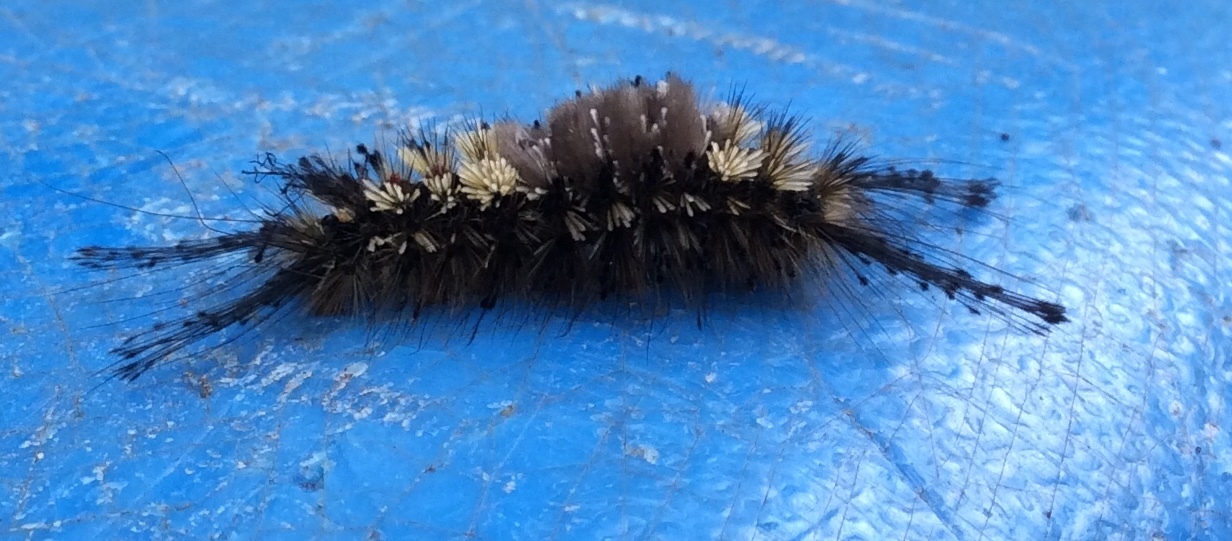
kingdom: Animalia
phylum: Arthropoda
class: Insecta
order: Lepidoptera
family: Erebidae
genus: Dasychira
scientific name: Dasychira vagans
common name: Variable tussock moth
